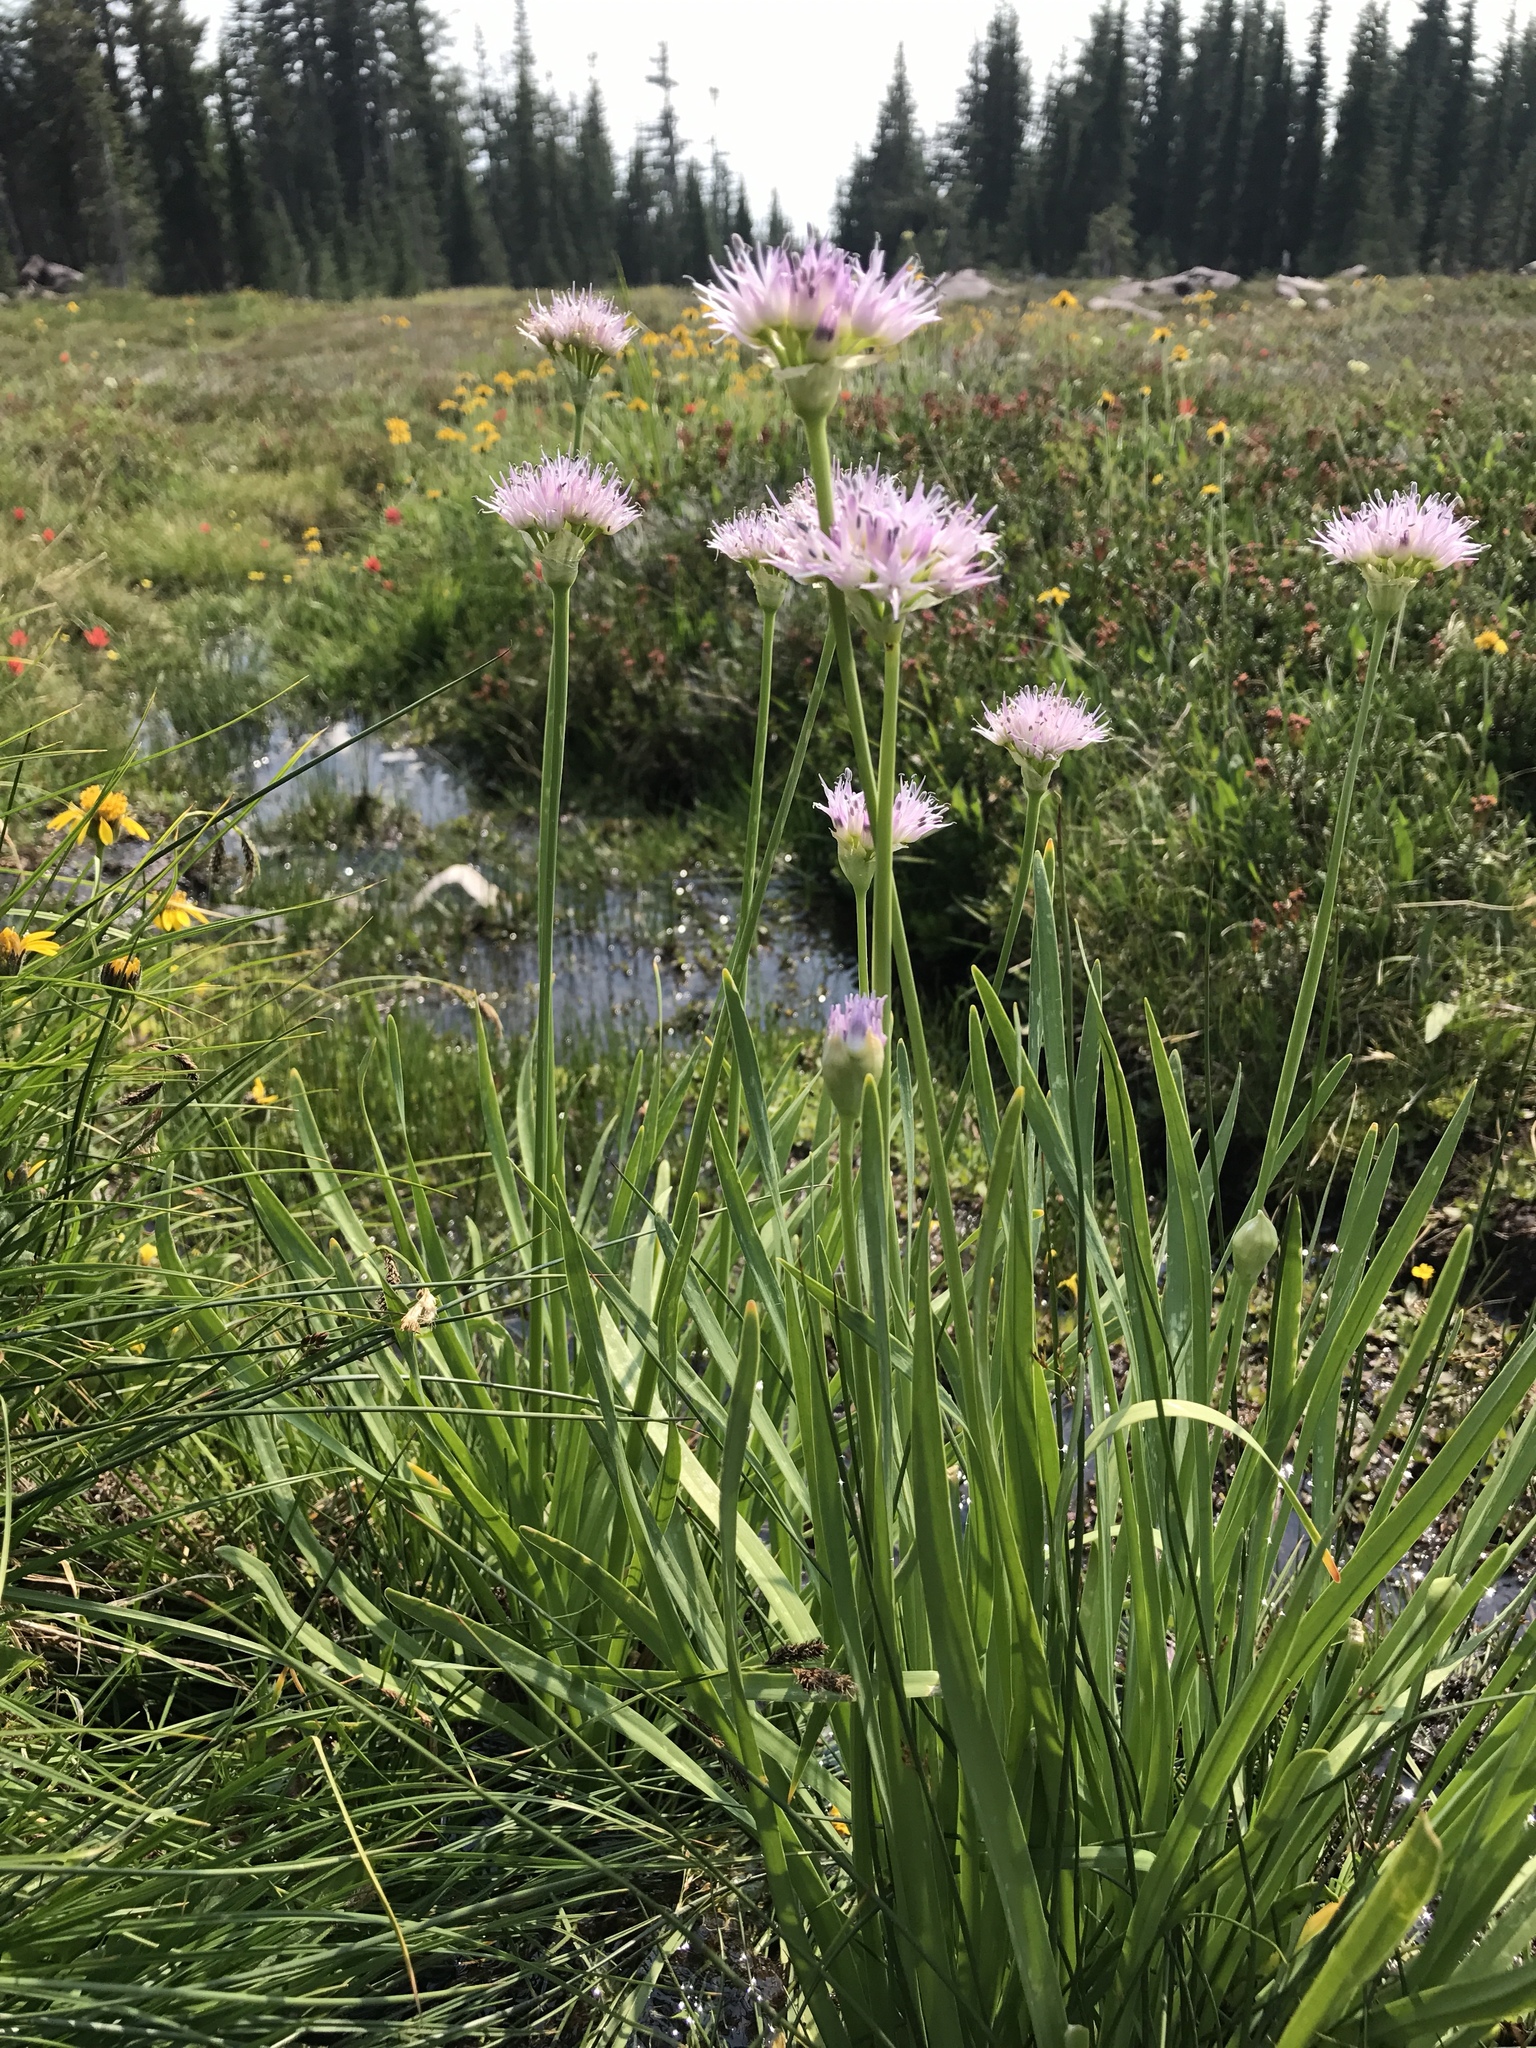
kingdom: Plantae
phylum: Tracheophyta
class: Liliopsida
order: Asparagales
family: Amaryllidaceae
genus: Allium
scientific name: Allium validum
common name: Pacific mountain onion
